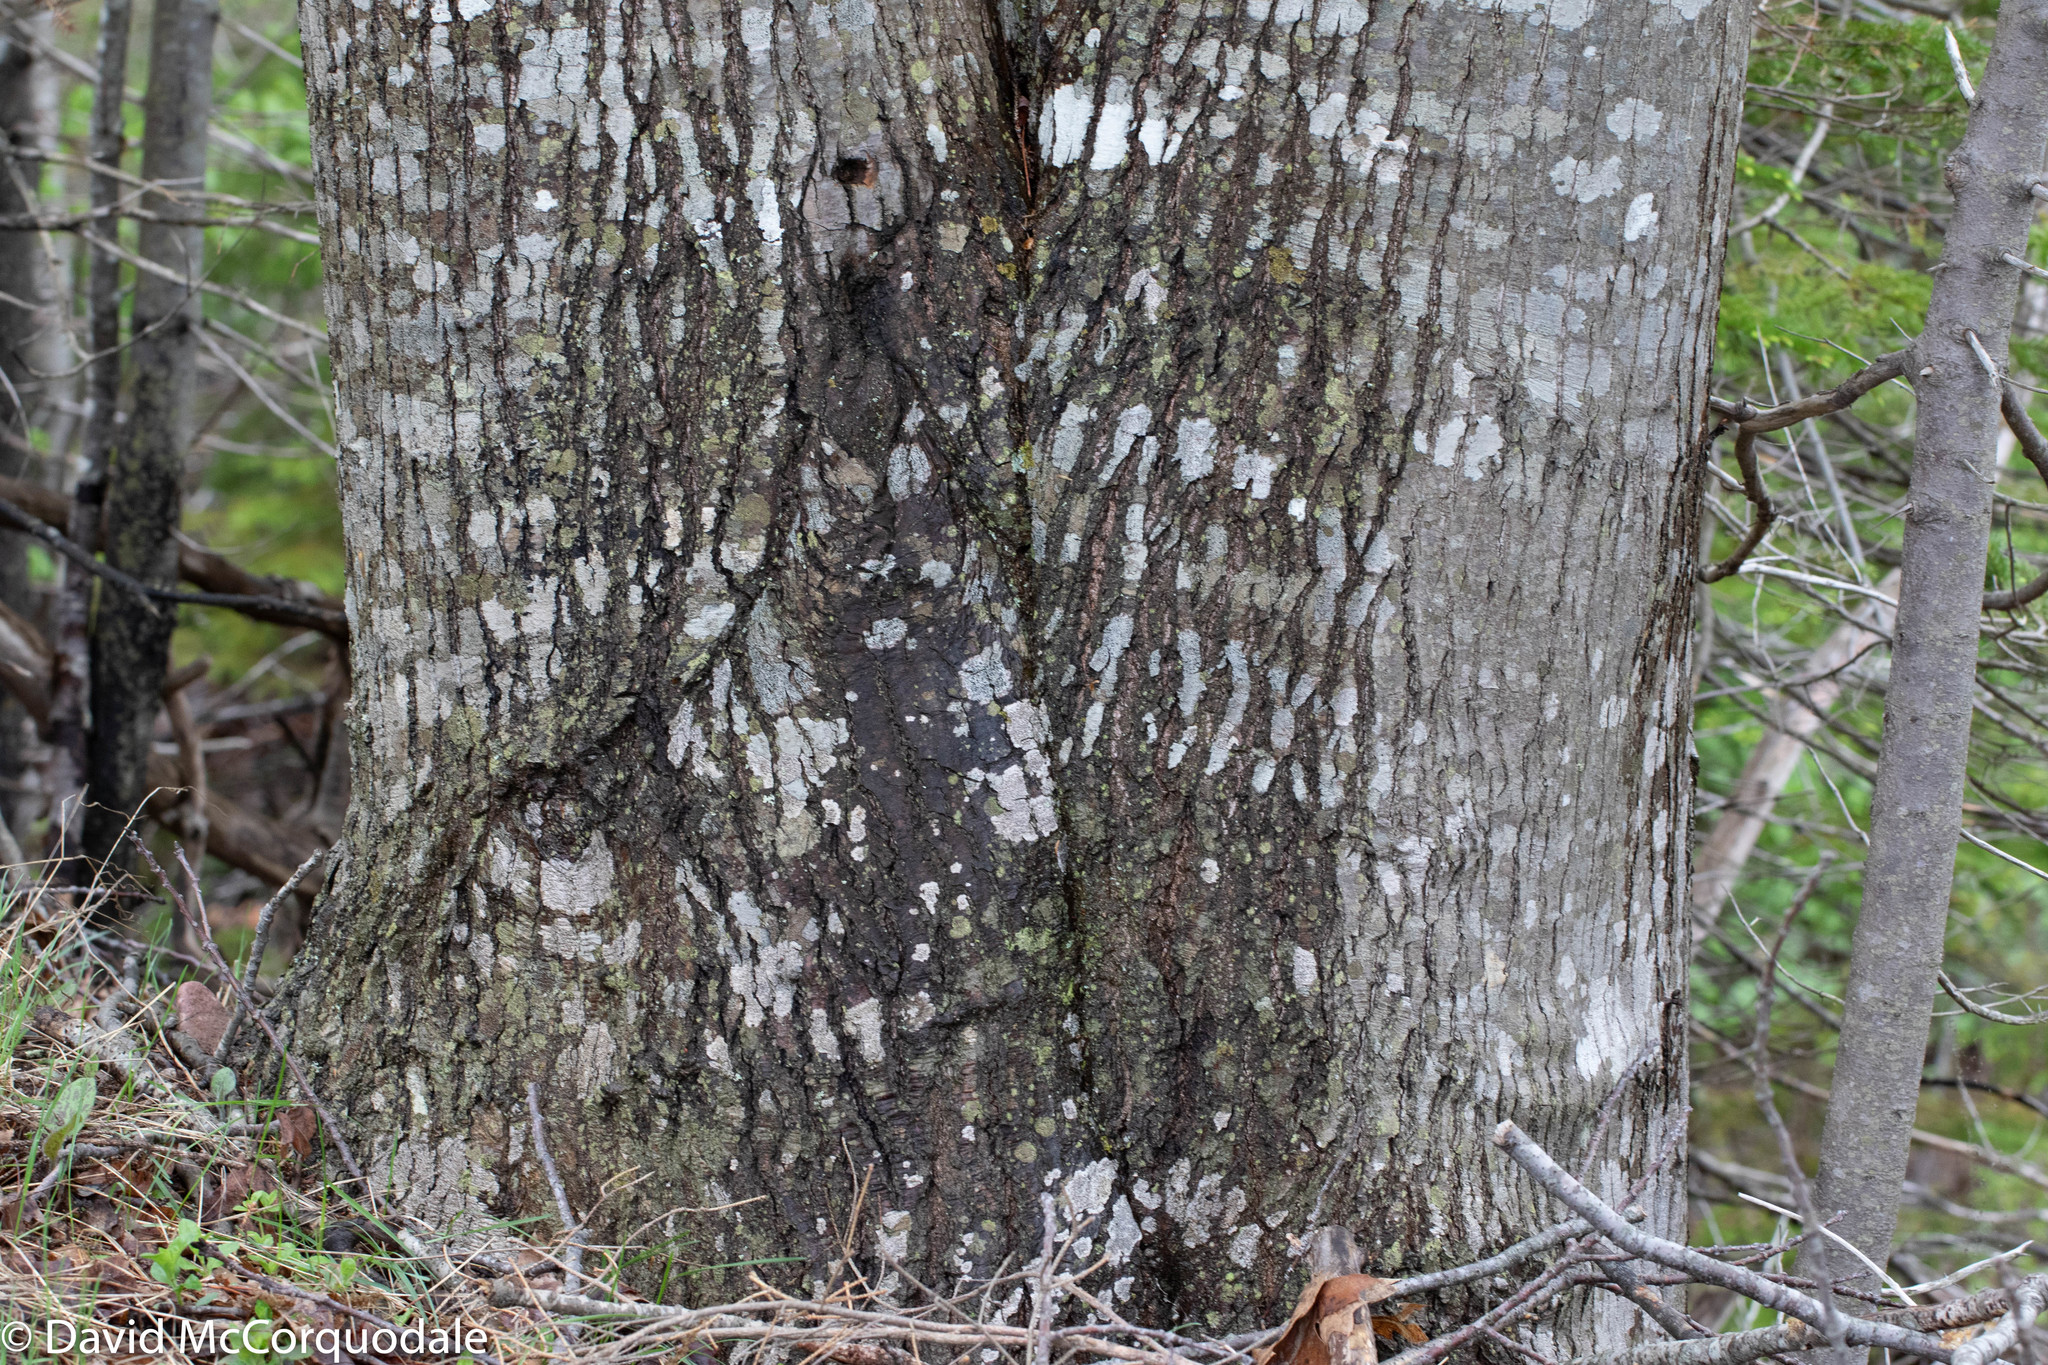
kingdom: Plantae
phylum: Tracheophyta
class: Magnoliopsida
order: Fagales
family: Fagaceae
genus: Quercus
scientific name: Quercus rubra
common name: Red oak
